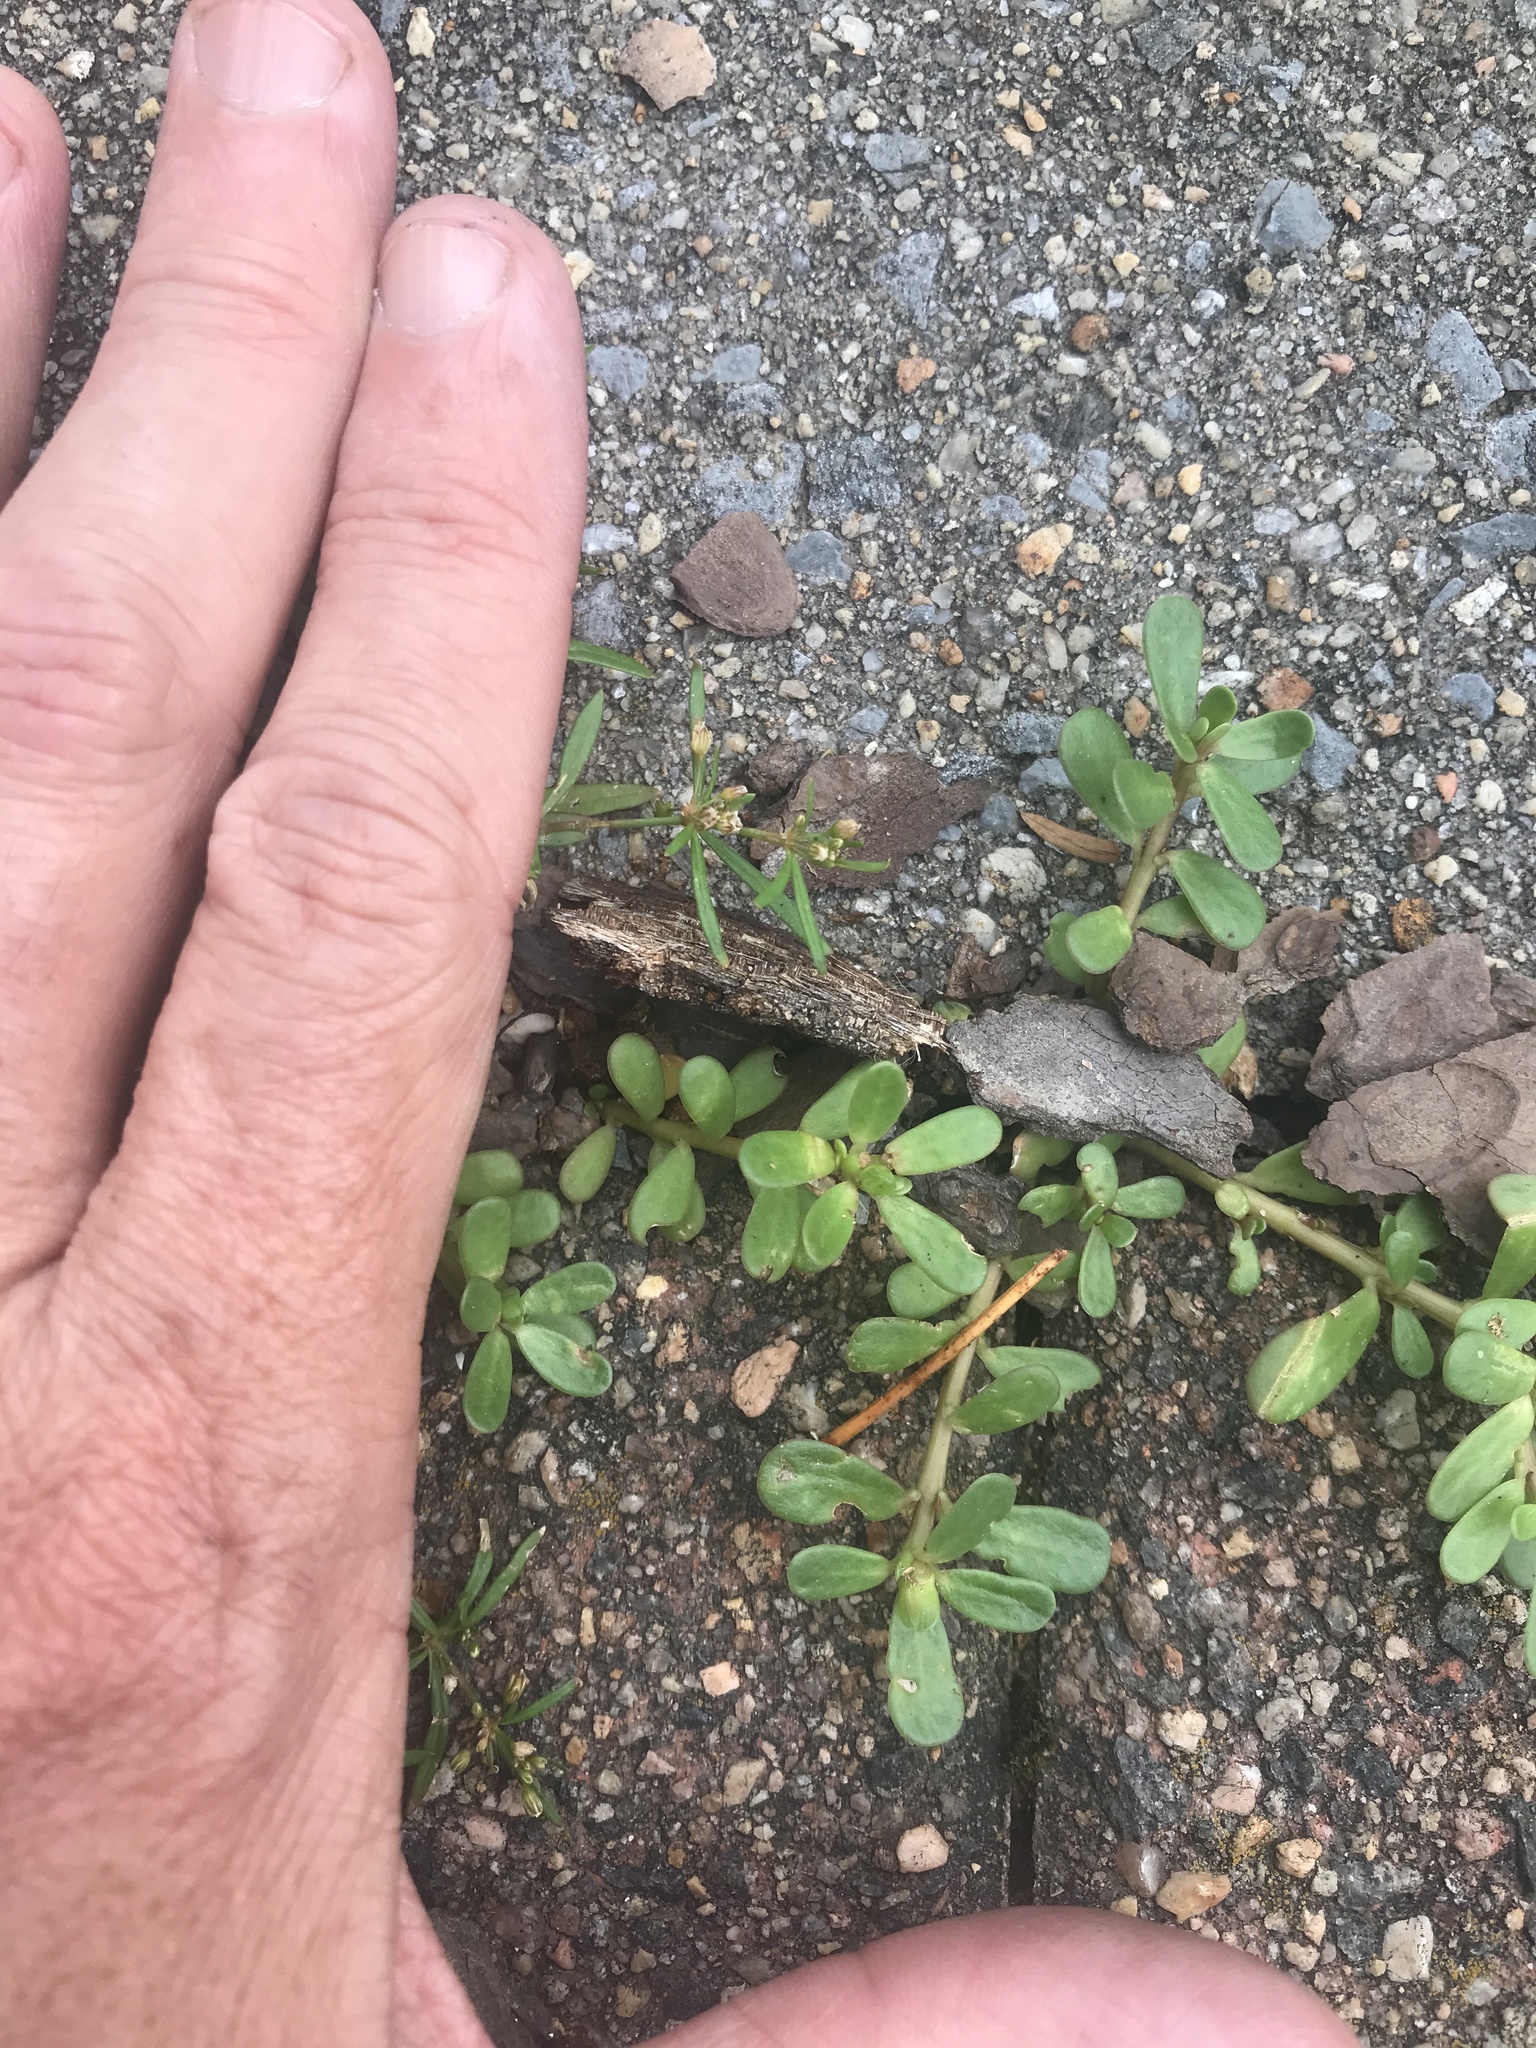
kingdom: Plantae
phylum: Tracheophyta
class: Magnoliopsida
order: Caryophyllales
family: Portulacaceae
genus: Portulaca
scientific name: Portulaca oleracea
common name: Common purslane
